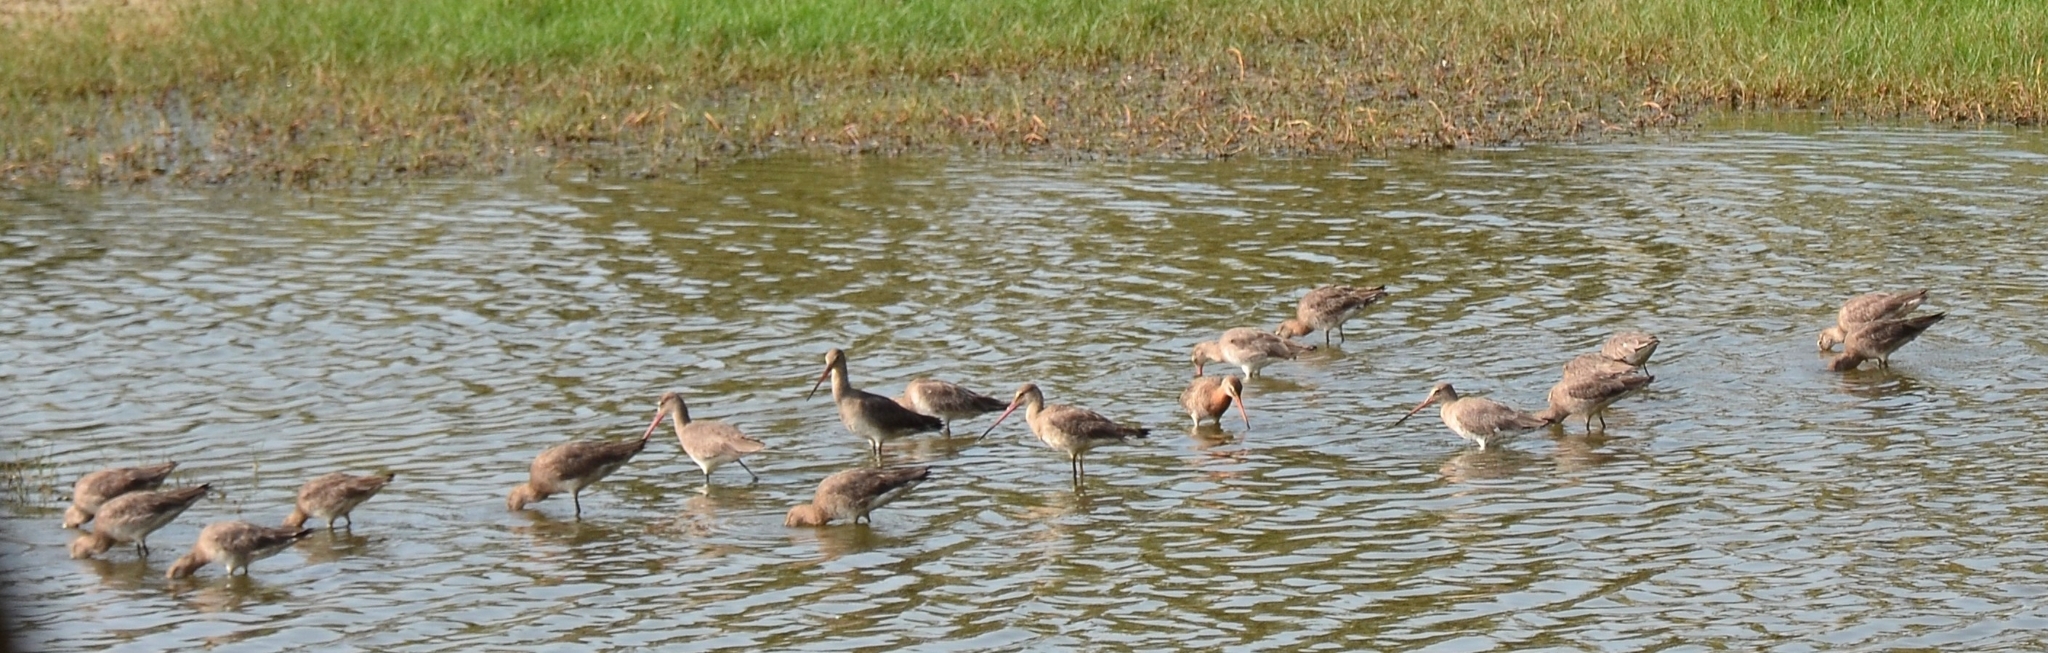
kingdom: Animalia
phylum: Chordata
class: Aves
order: Charadriiformes
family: Scolopacidae
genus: Limosa
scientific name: Limosa limosa
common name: Black-tailed godwit
